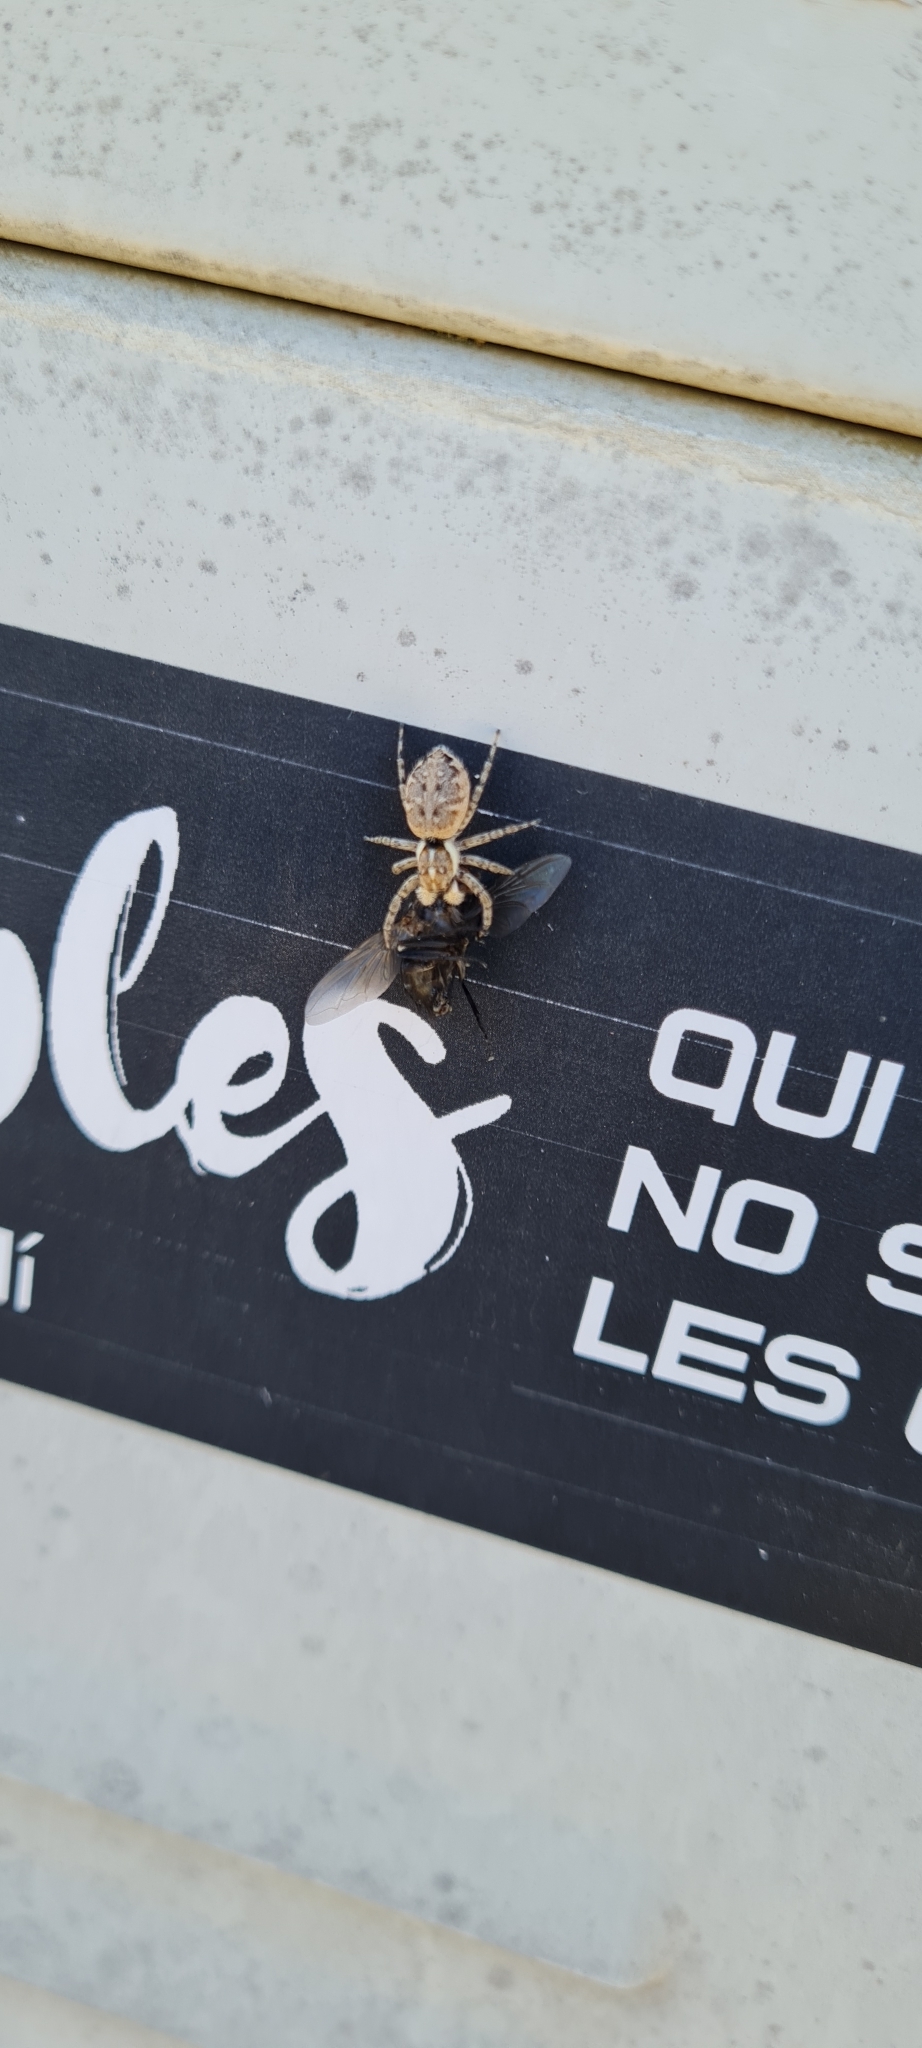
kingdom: Animalia
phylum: Arthropoda
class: Arachnida
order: Araneae
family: Salticidae
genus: Menemerus
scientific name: Menemerus semilimbatus
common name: Jumping spider
